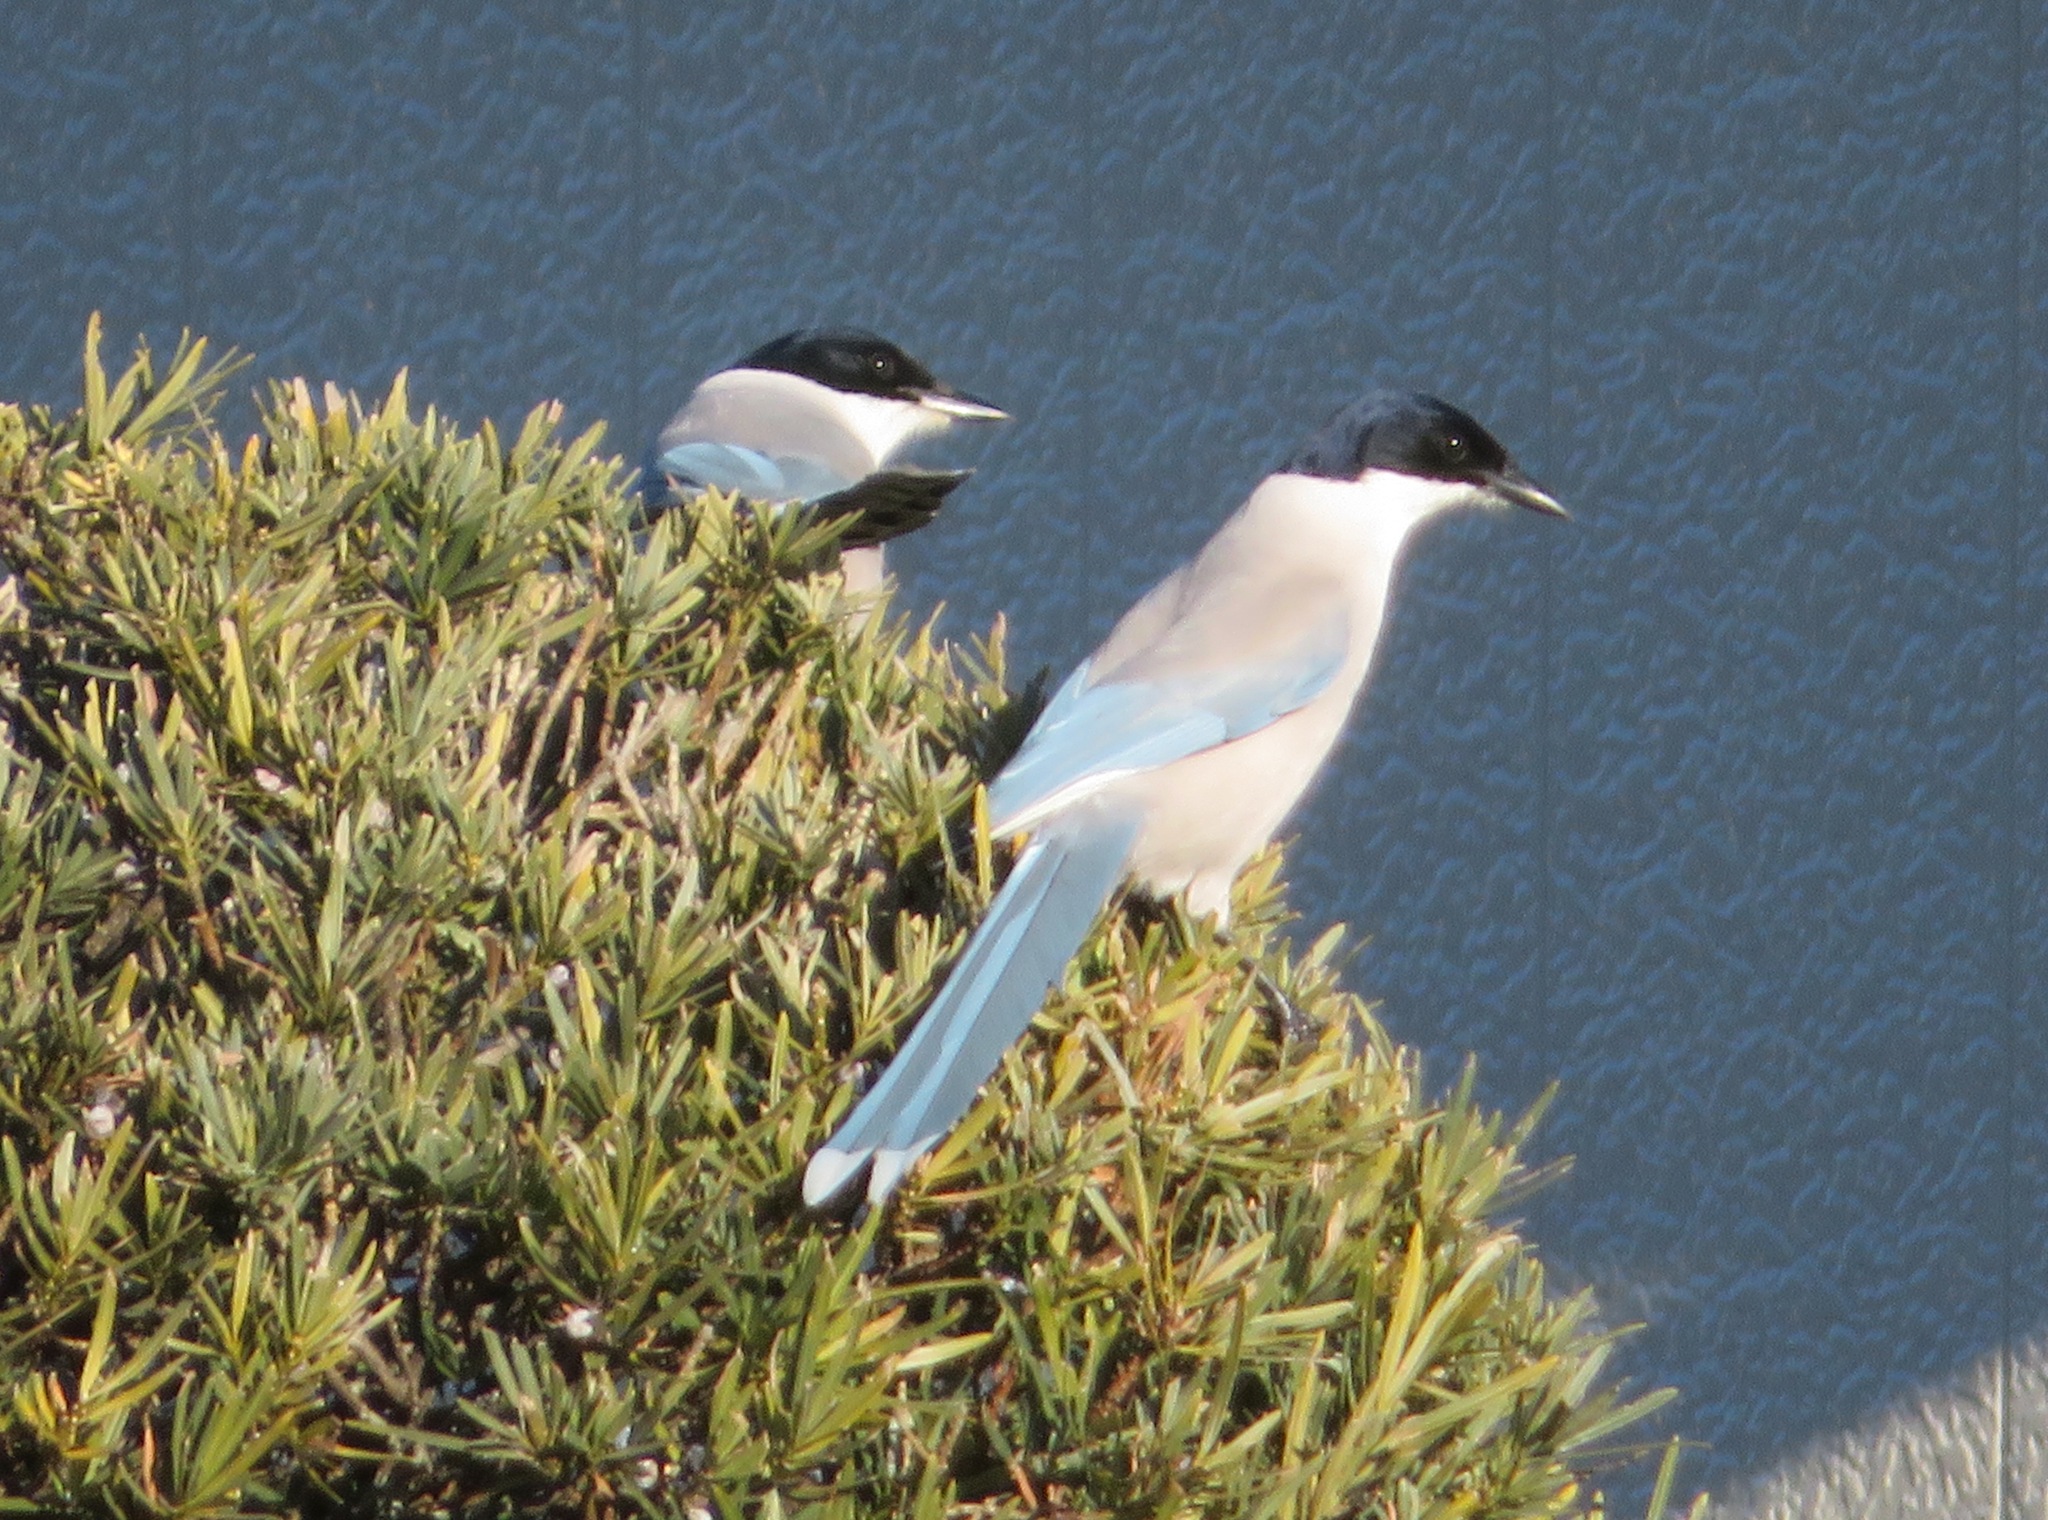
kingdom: Animalia
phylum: Chordata
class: Aves
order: Passeriformes
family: Corvidae
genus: Cyanopica
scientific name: Cyanopica cyanus
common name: Azure-winged magpie
